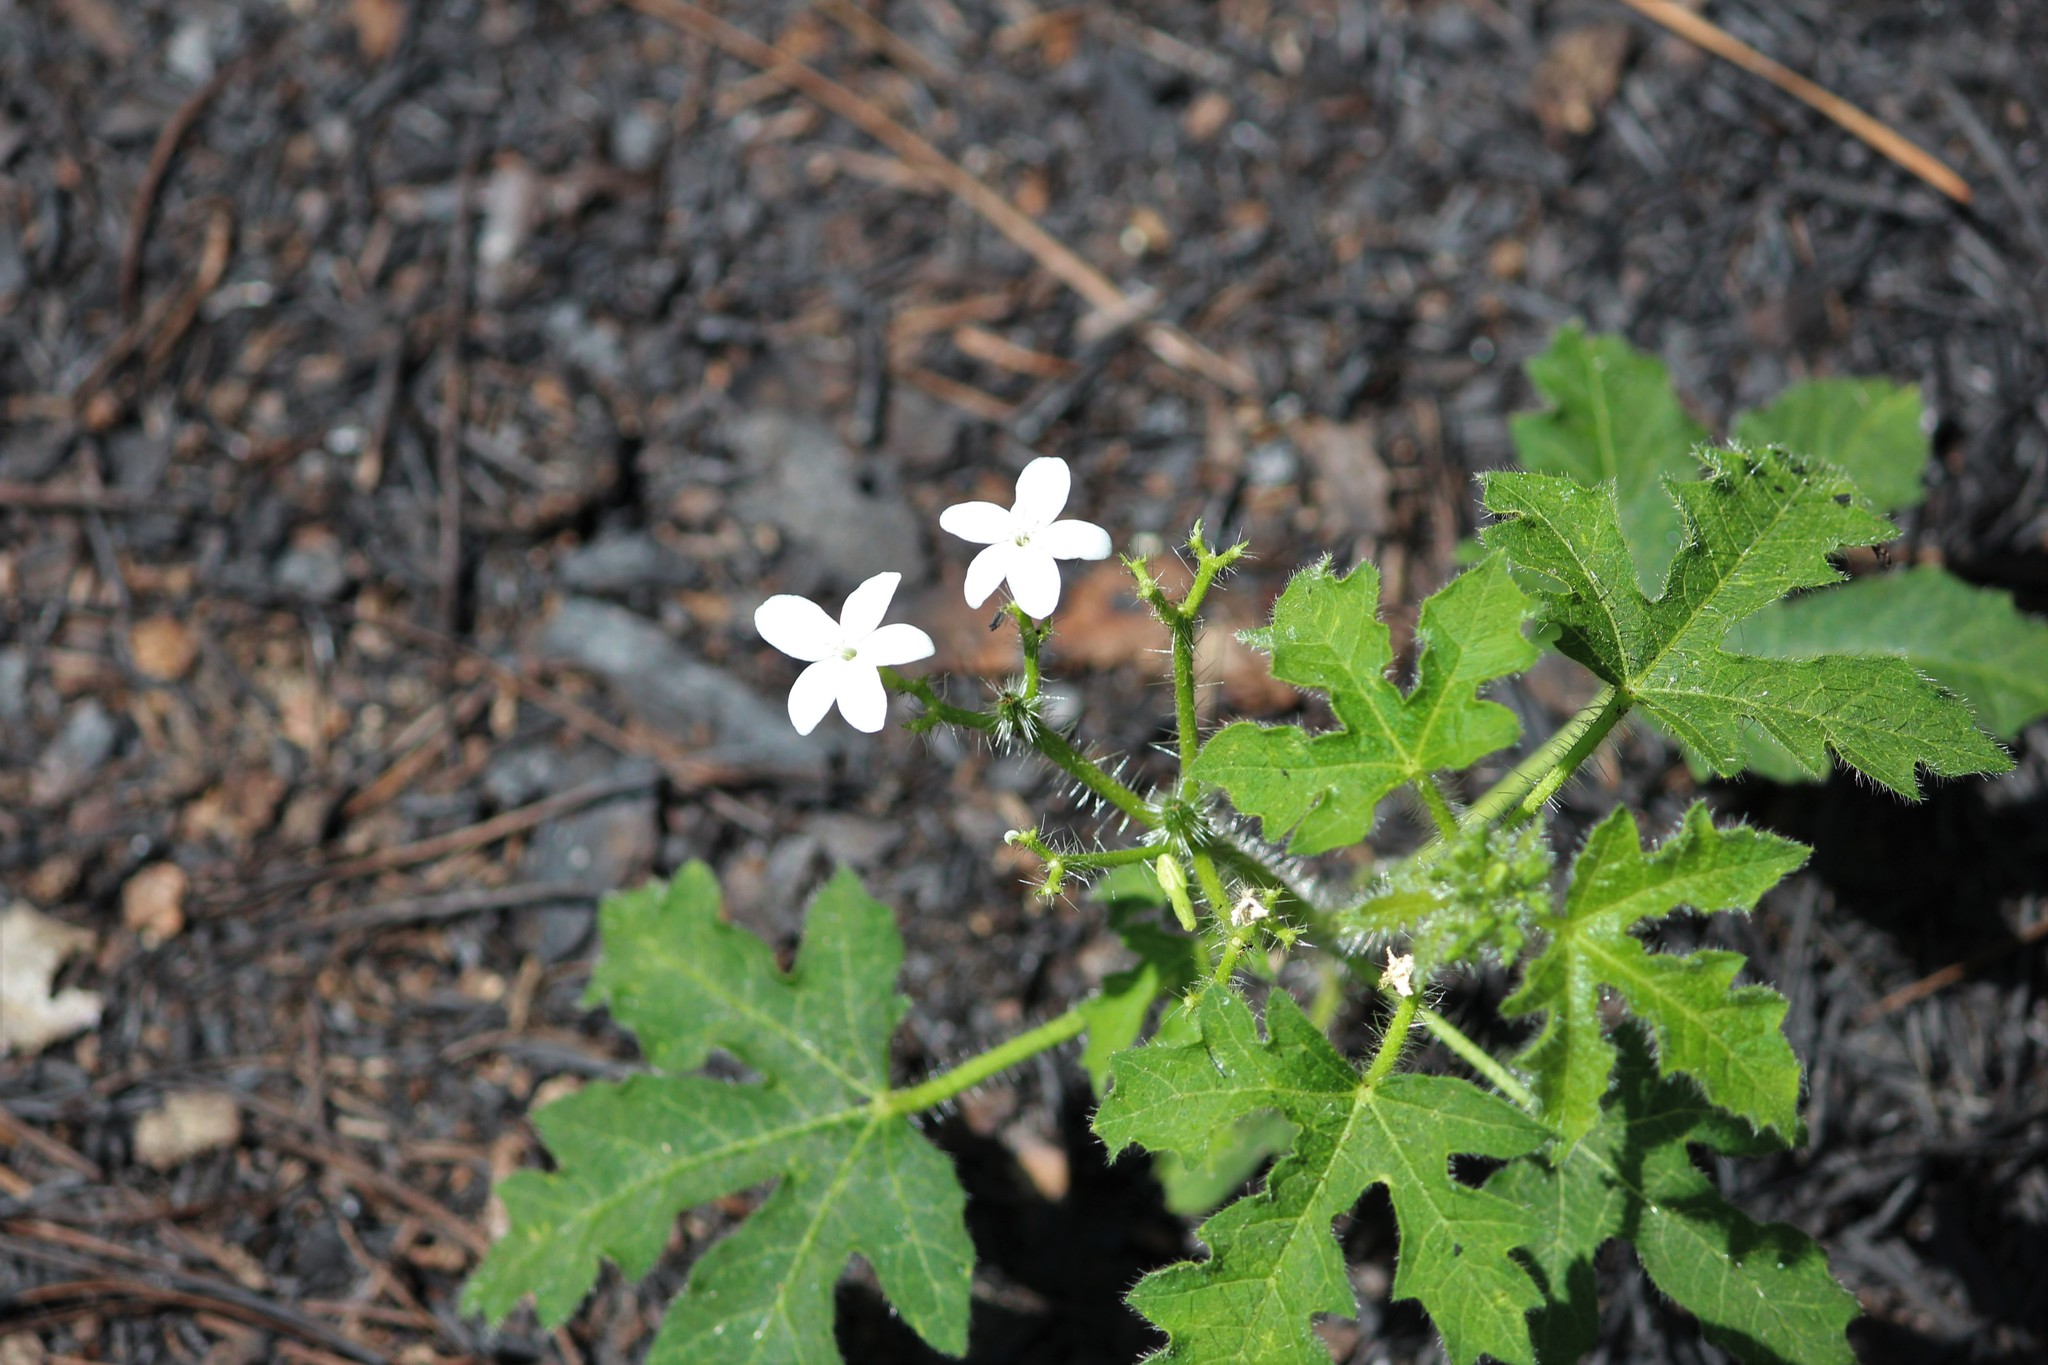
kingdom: Plantae
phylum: Tracheophyta
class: Magnoliopsida
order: Malpighiales
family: Euphorbiaceae
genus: Cnidoscolus
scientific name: Cnidoscolus stimulosus
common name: Bull-nettle
